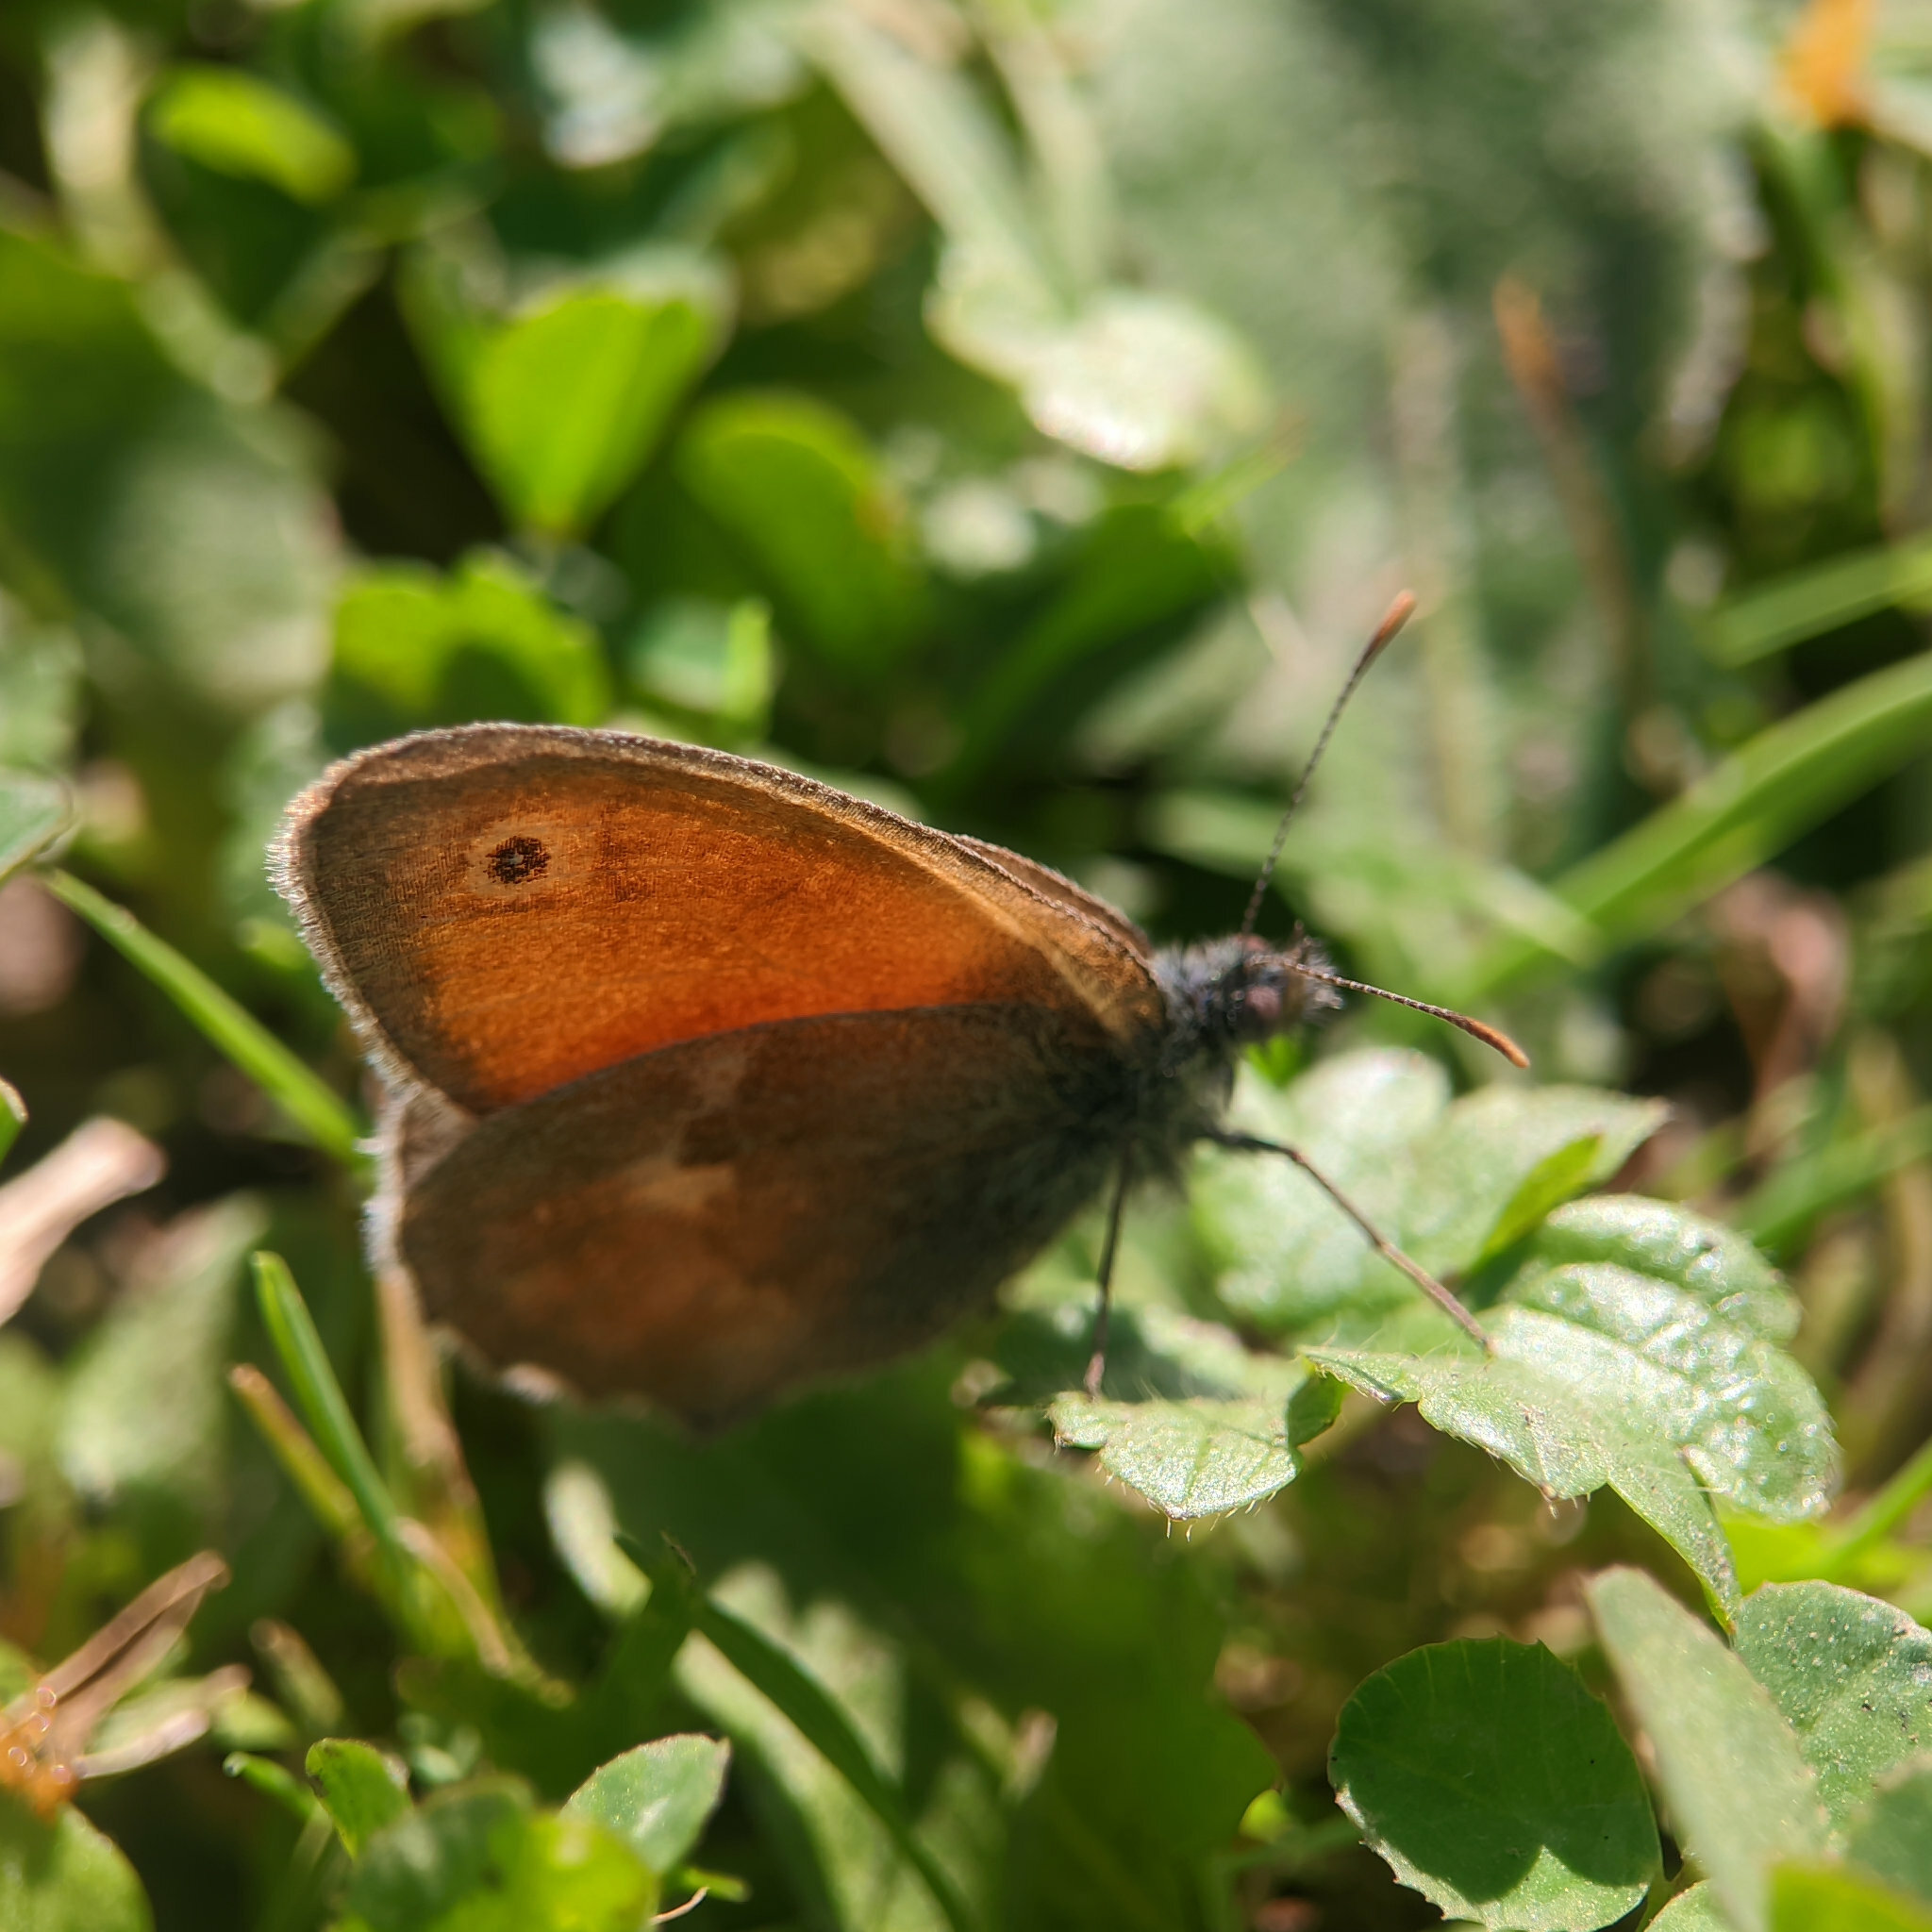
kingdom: Animalia
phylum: Arthropoda
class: Insecta
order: Lepidoptera
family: Nymphalidae
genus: Coenonympha
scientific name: Coenonympha pamphilus
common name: Small heath
